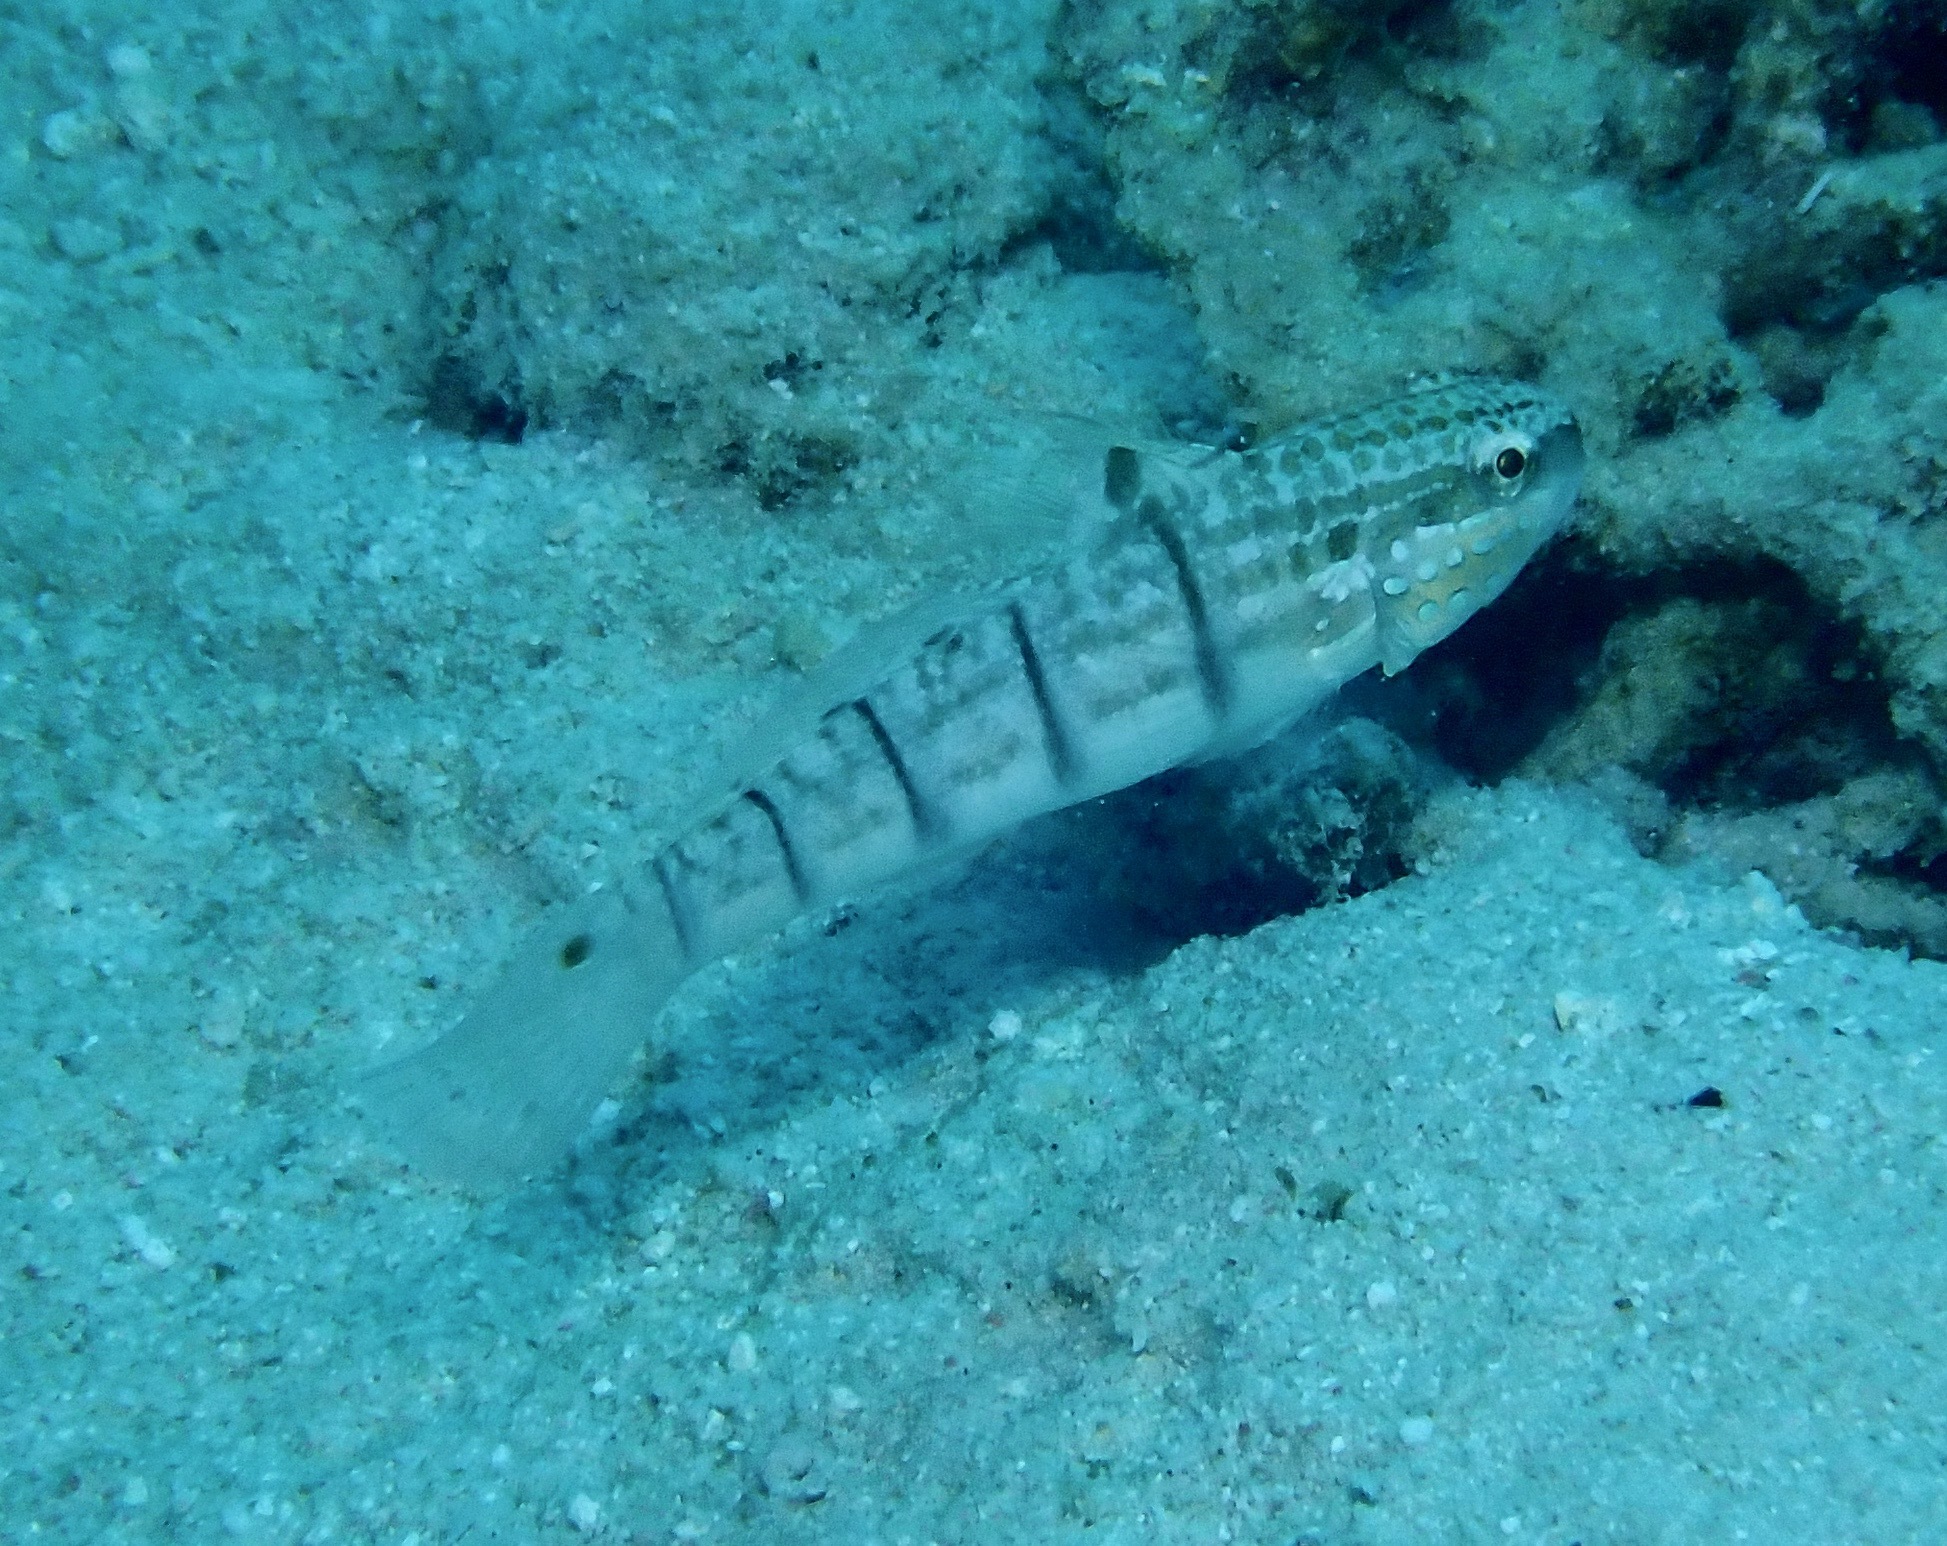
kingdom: Animalia
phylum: Chordata
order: Perciformes
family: Gobiidae
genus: Amblygobius
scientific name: Amblygobius phalaena
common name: Banded goby
